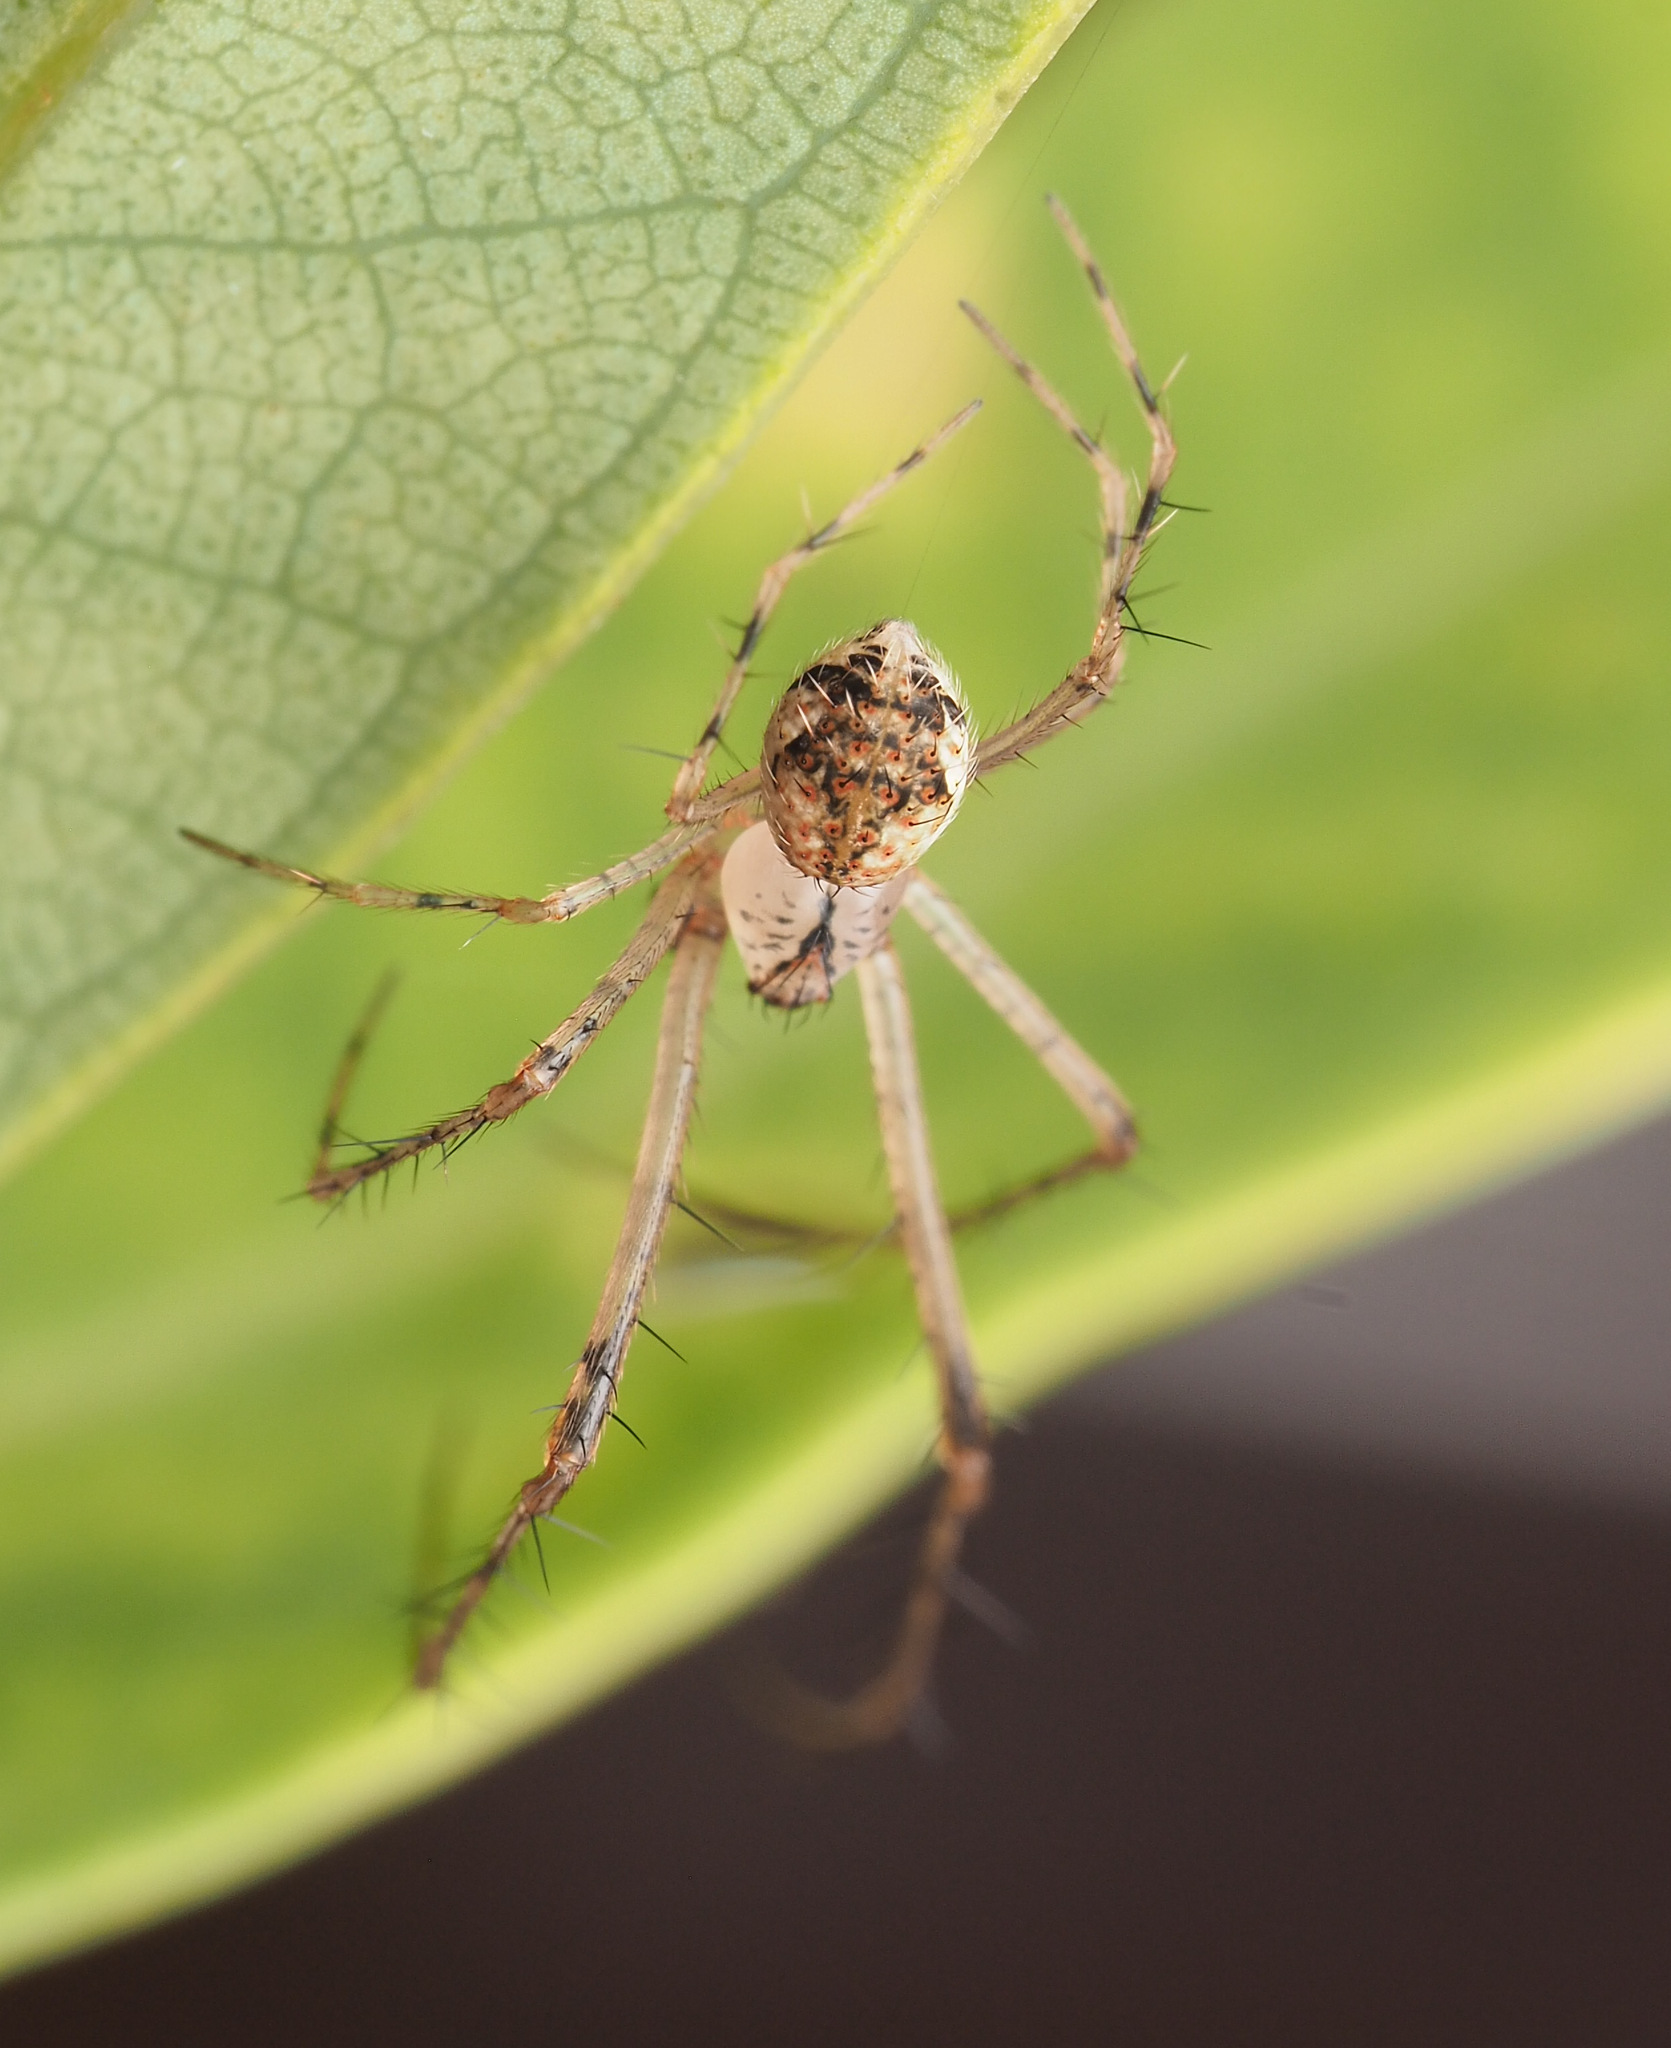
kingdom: Animalia
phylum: Arthropoda
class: Arachnida
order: Araneae
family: Mimetidae
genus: Australomimetus
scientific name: Australomimetus spinosus
